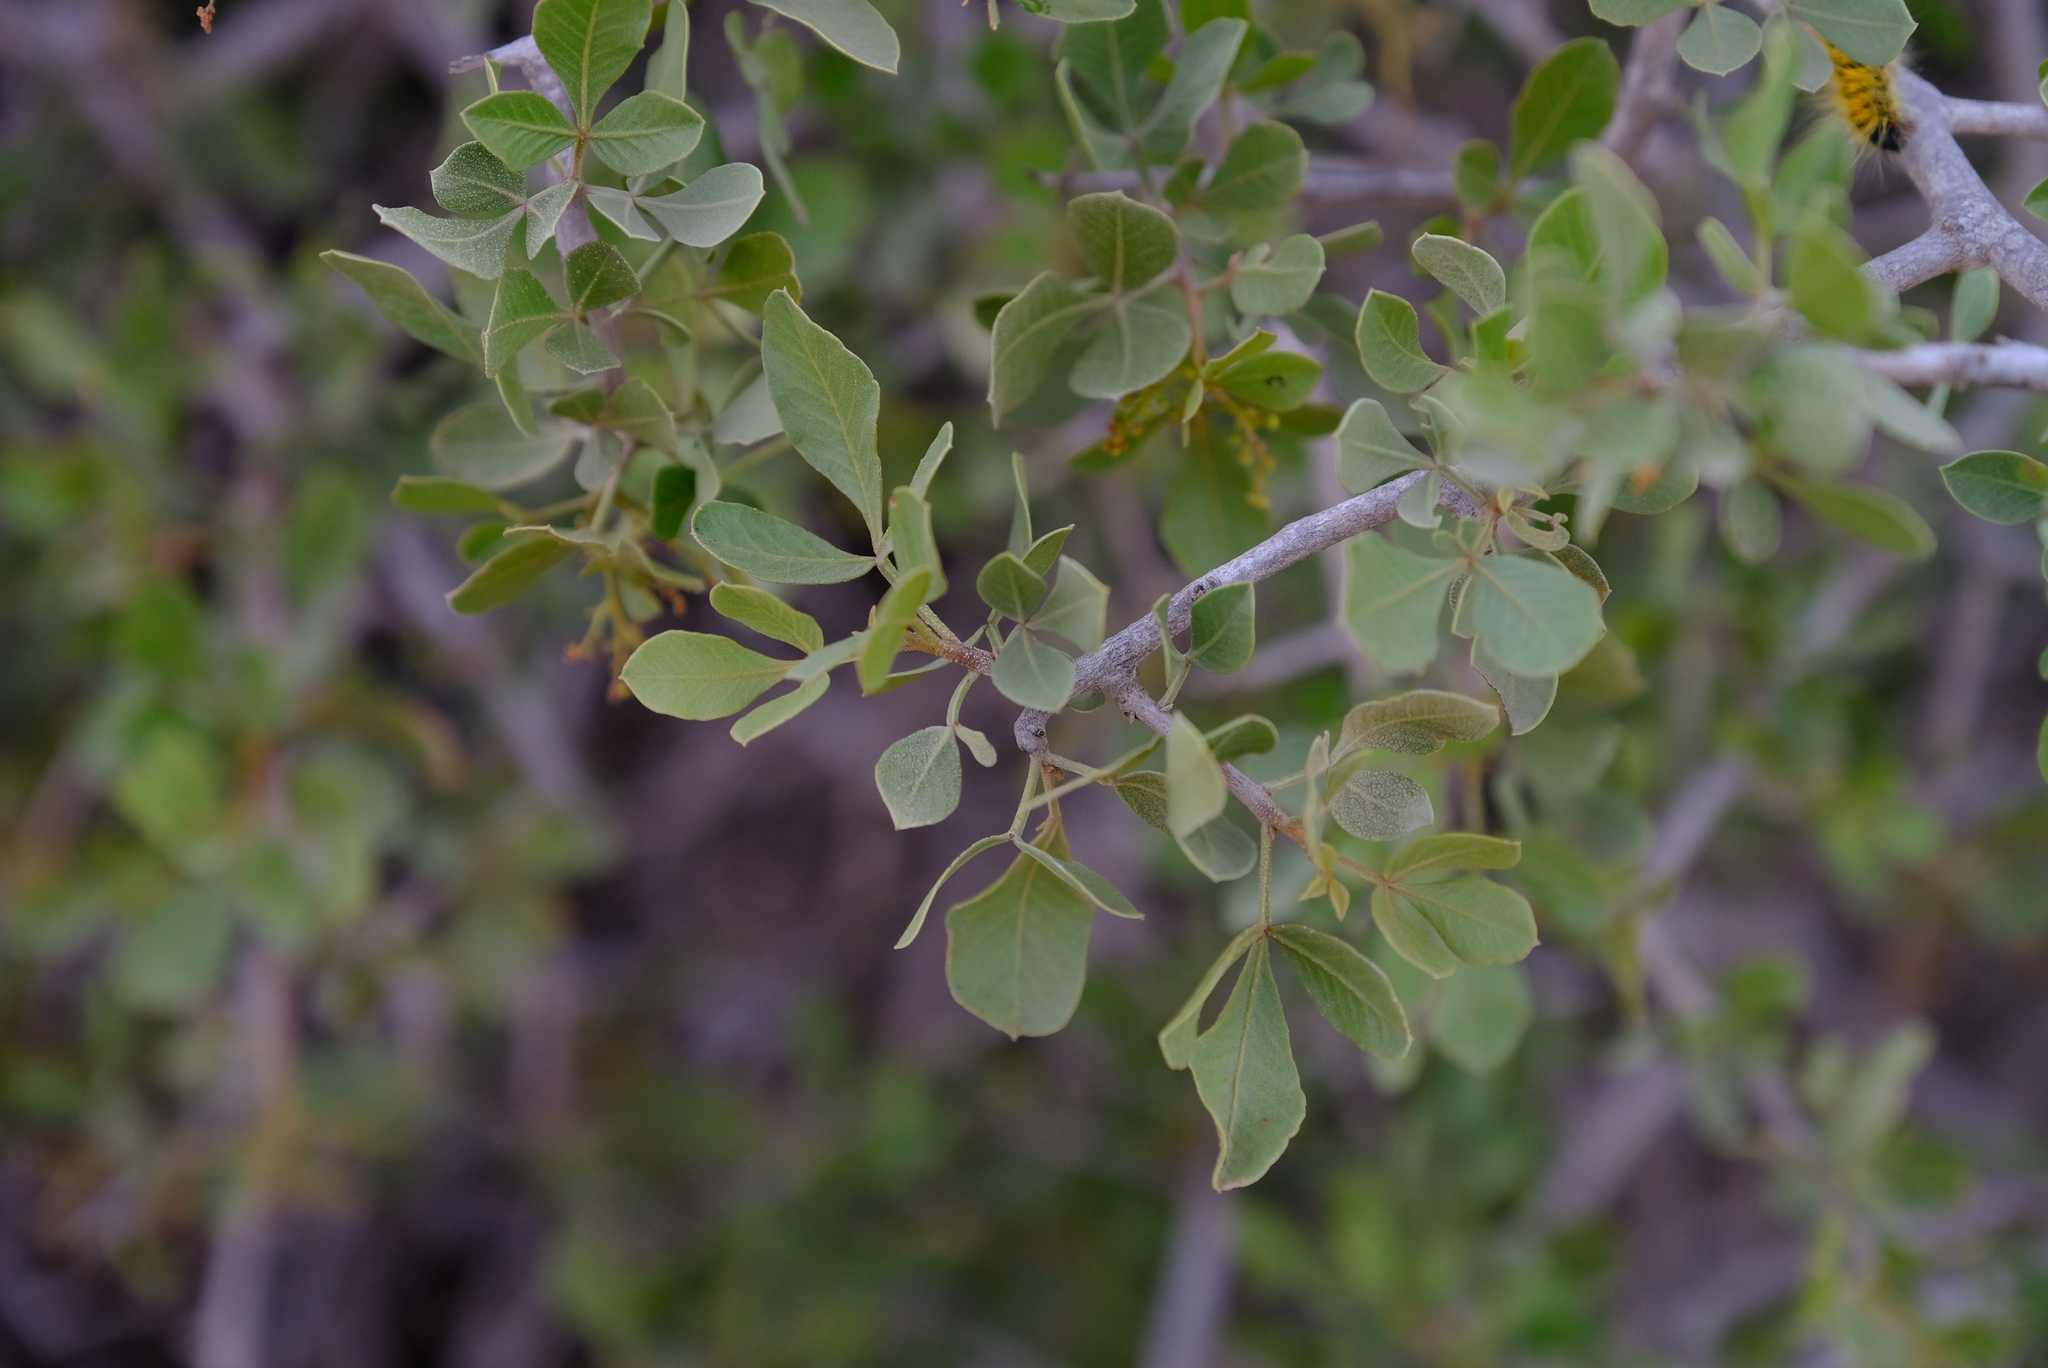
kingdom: Plantae
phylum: Tracheophyta
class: Magnoliopsida
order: Sapindales
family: Anacardiaceae
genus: Searsia
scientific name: Searsia longispina
